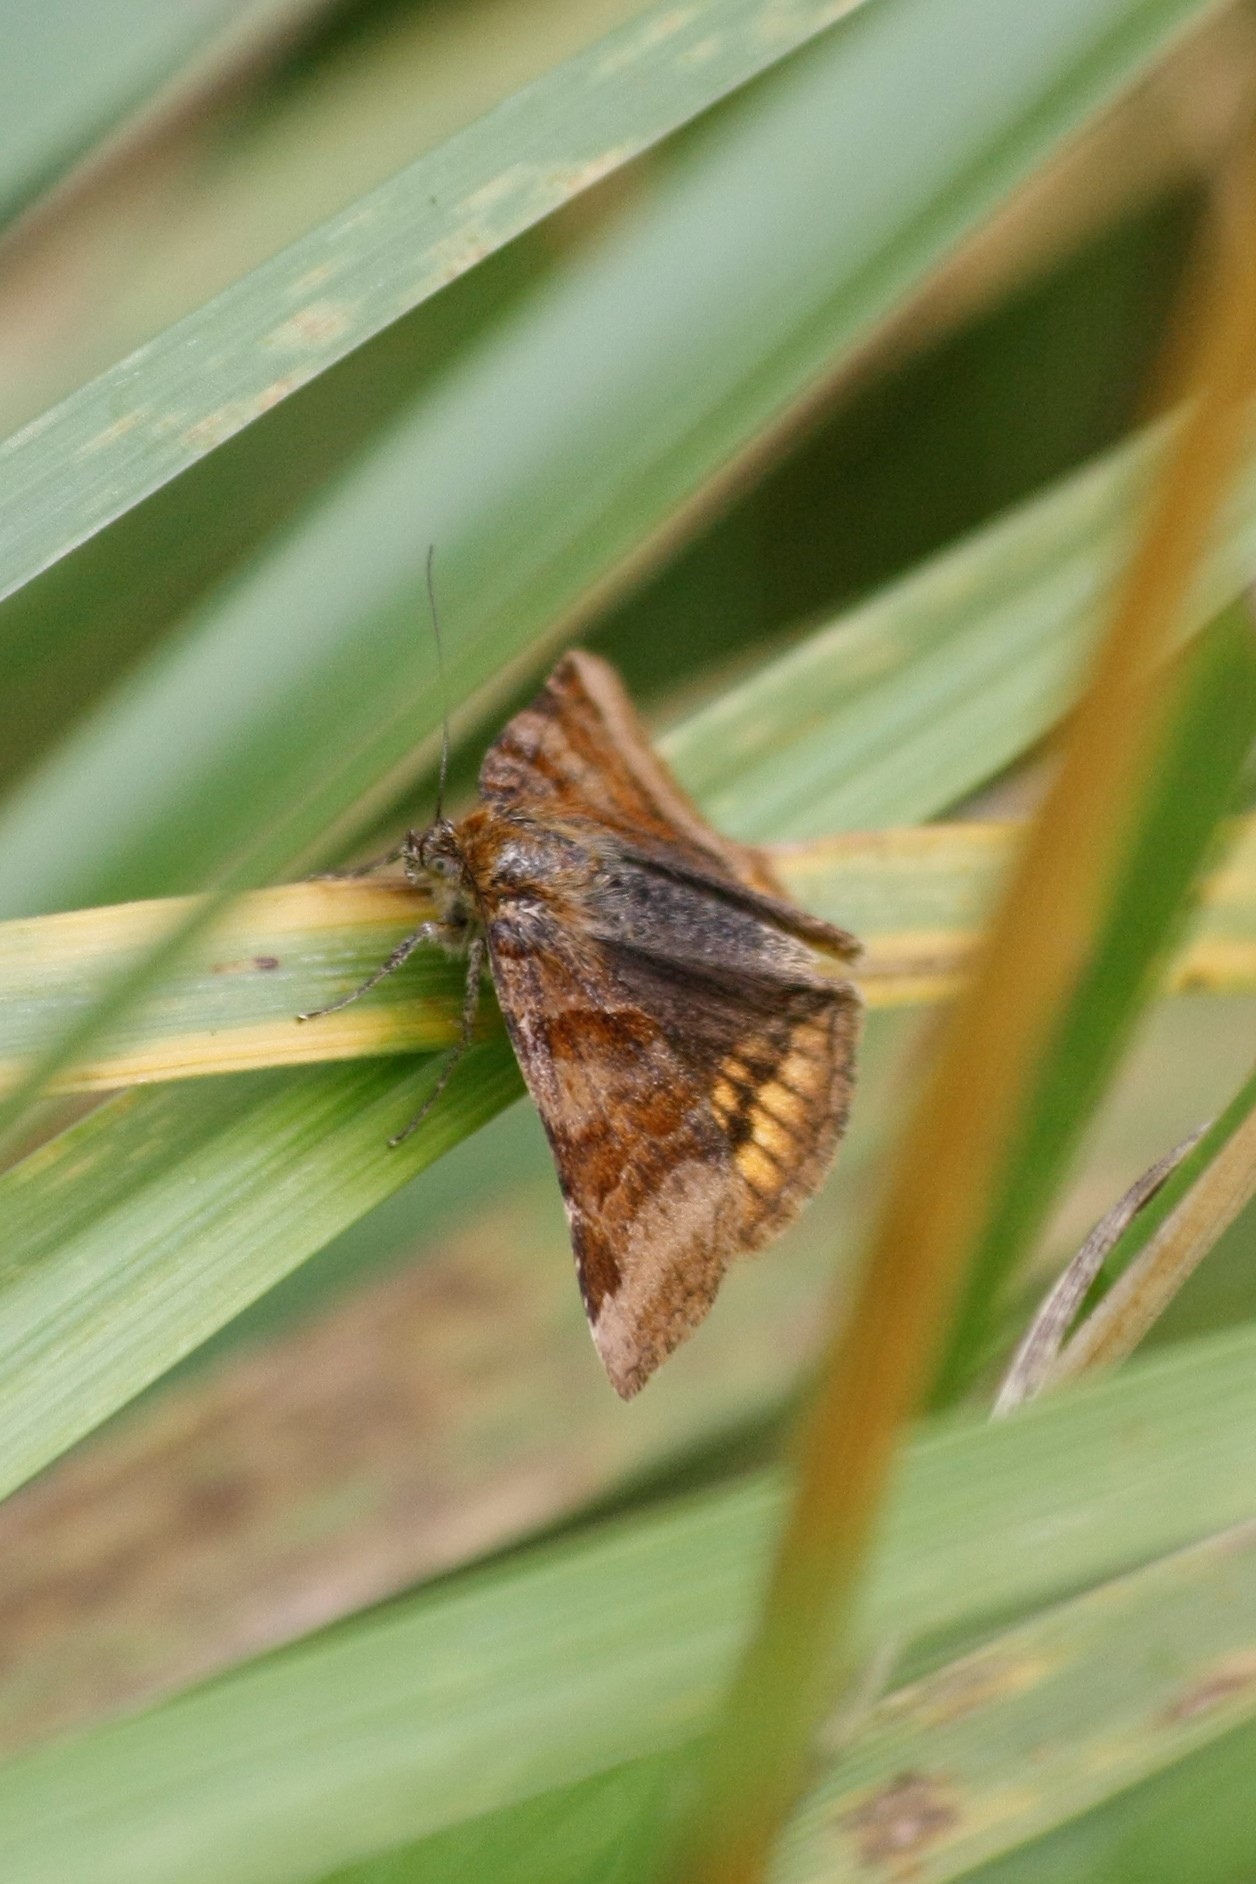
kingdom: Animalia
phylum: Arthropoda
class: Insecta
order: Lepidoptera
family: Erebidae
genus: Euclidia
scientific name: Euclidia glyphica
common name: Burnet companion
